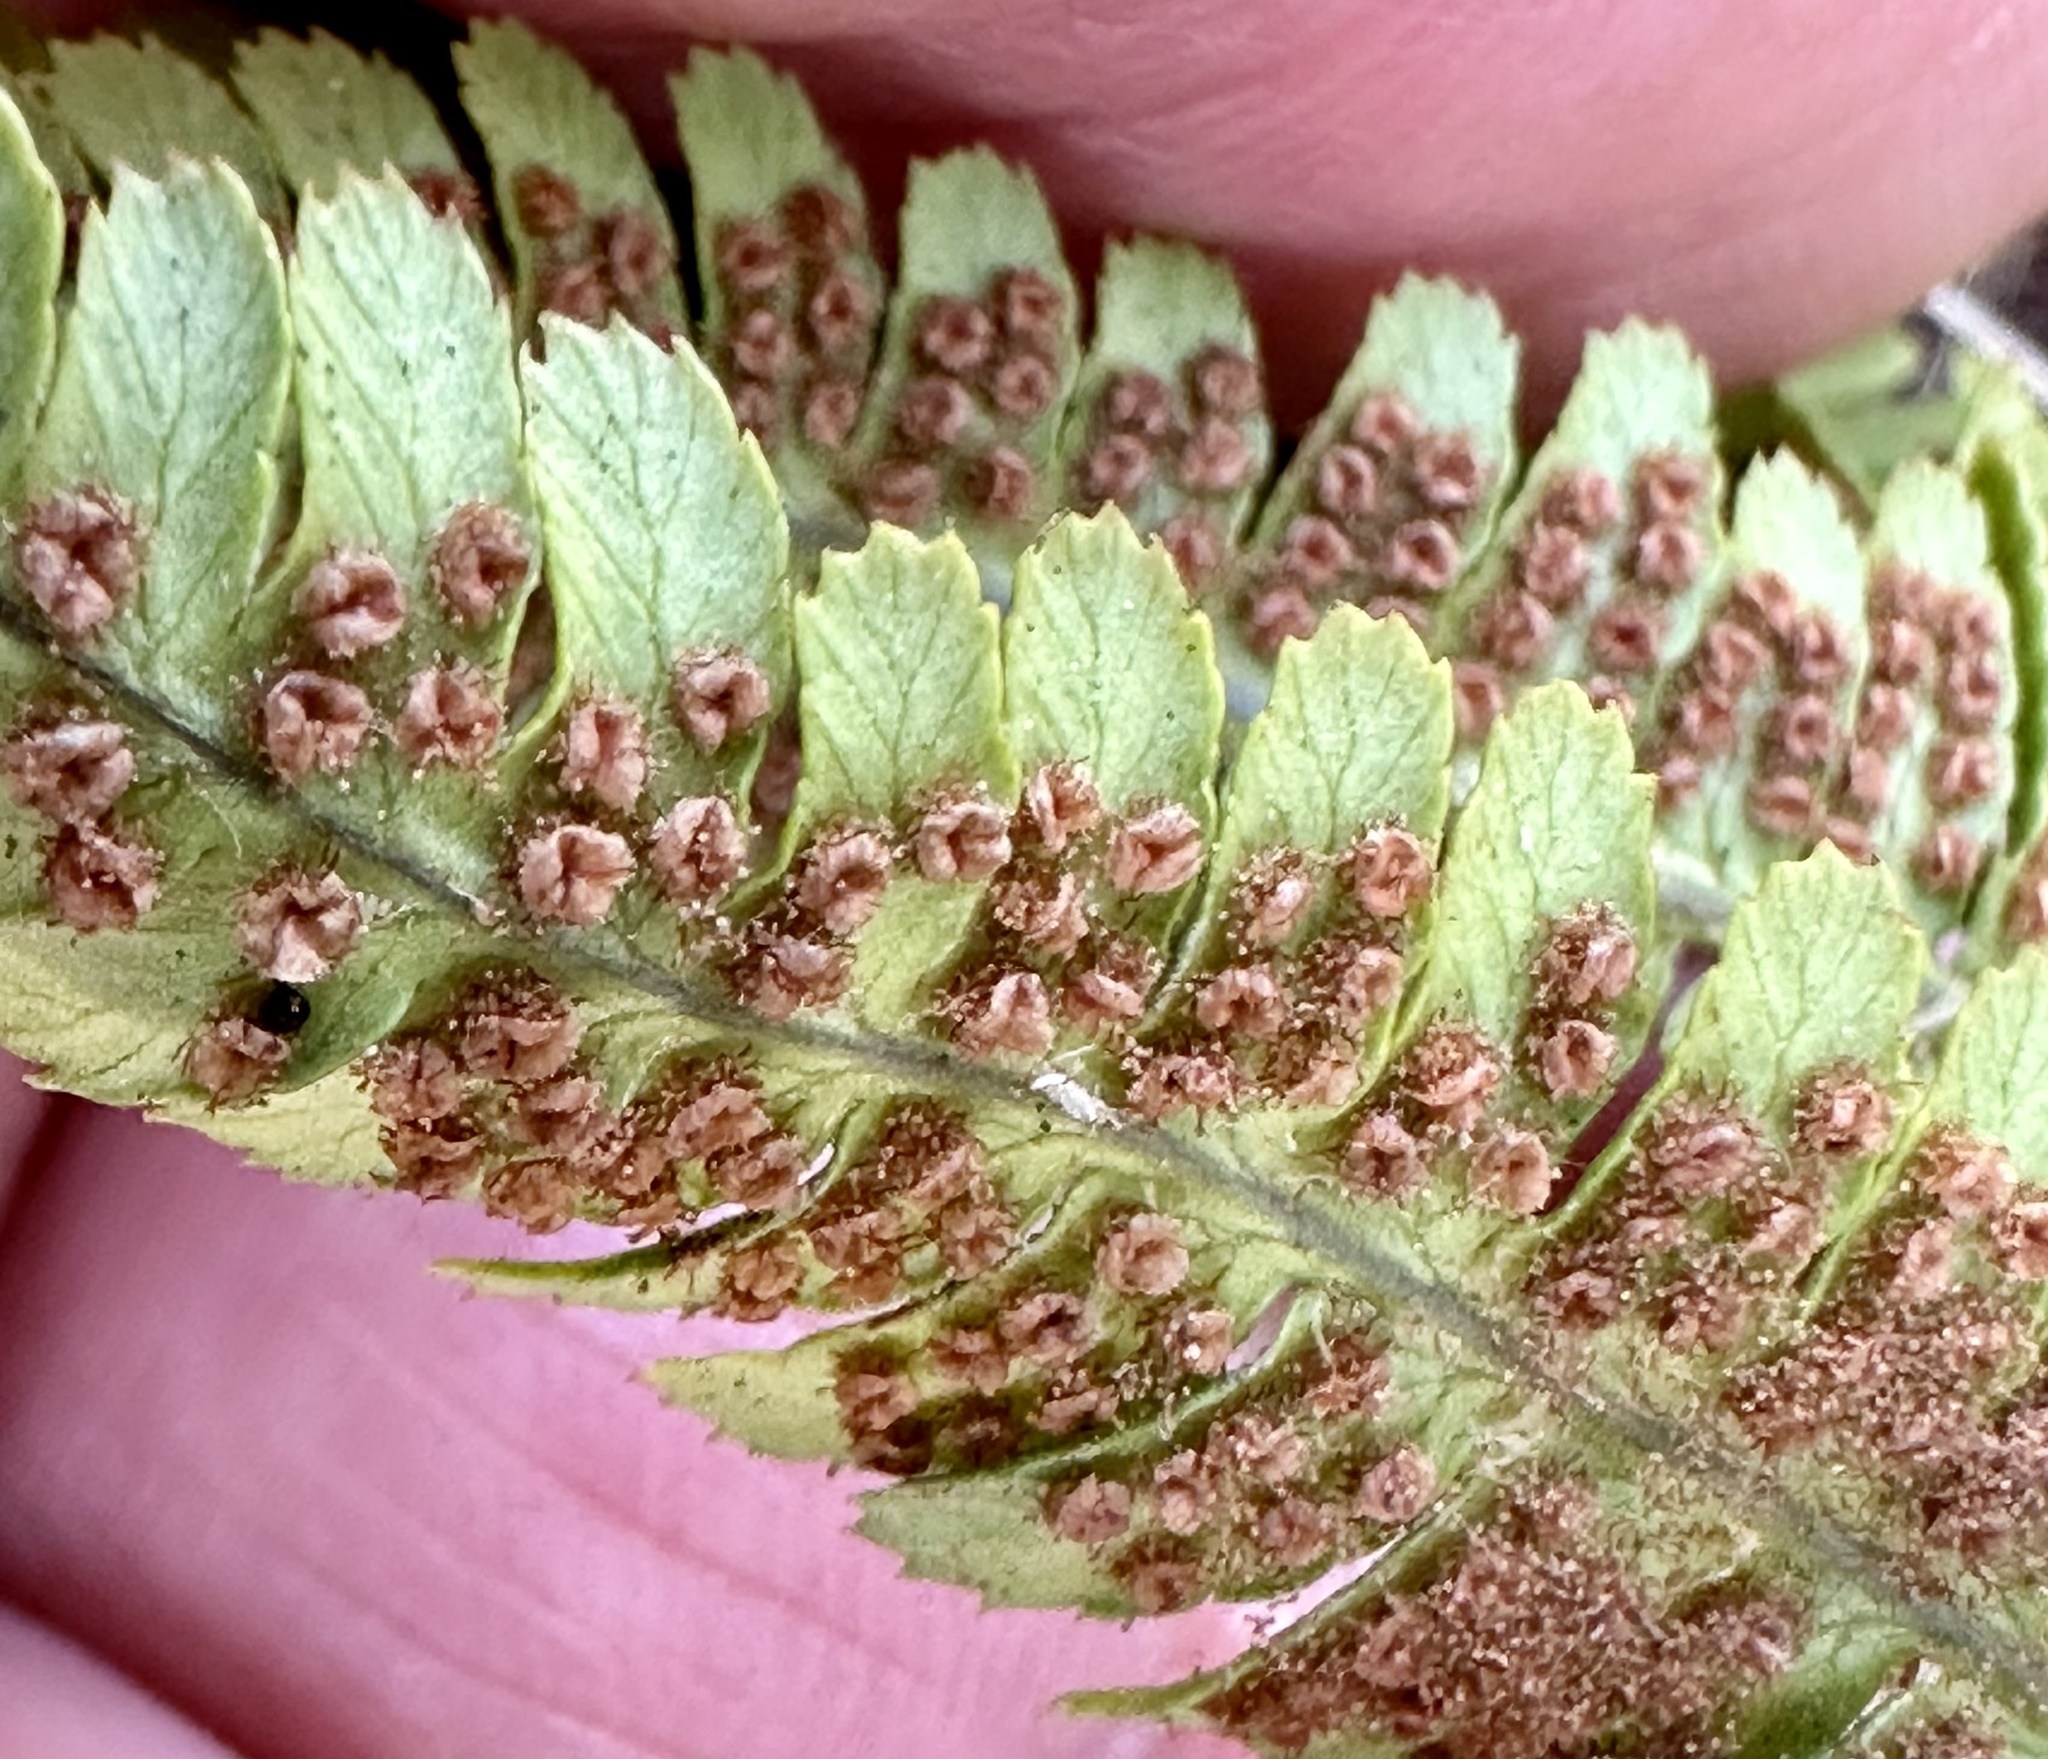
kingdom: Plantae
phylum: Tracheophyta
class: Polypodiopsida
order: Polypodiales
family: Dryopteridaceae
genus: Dryopteris
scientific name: Dryopteris arguta
